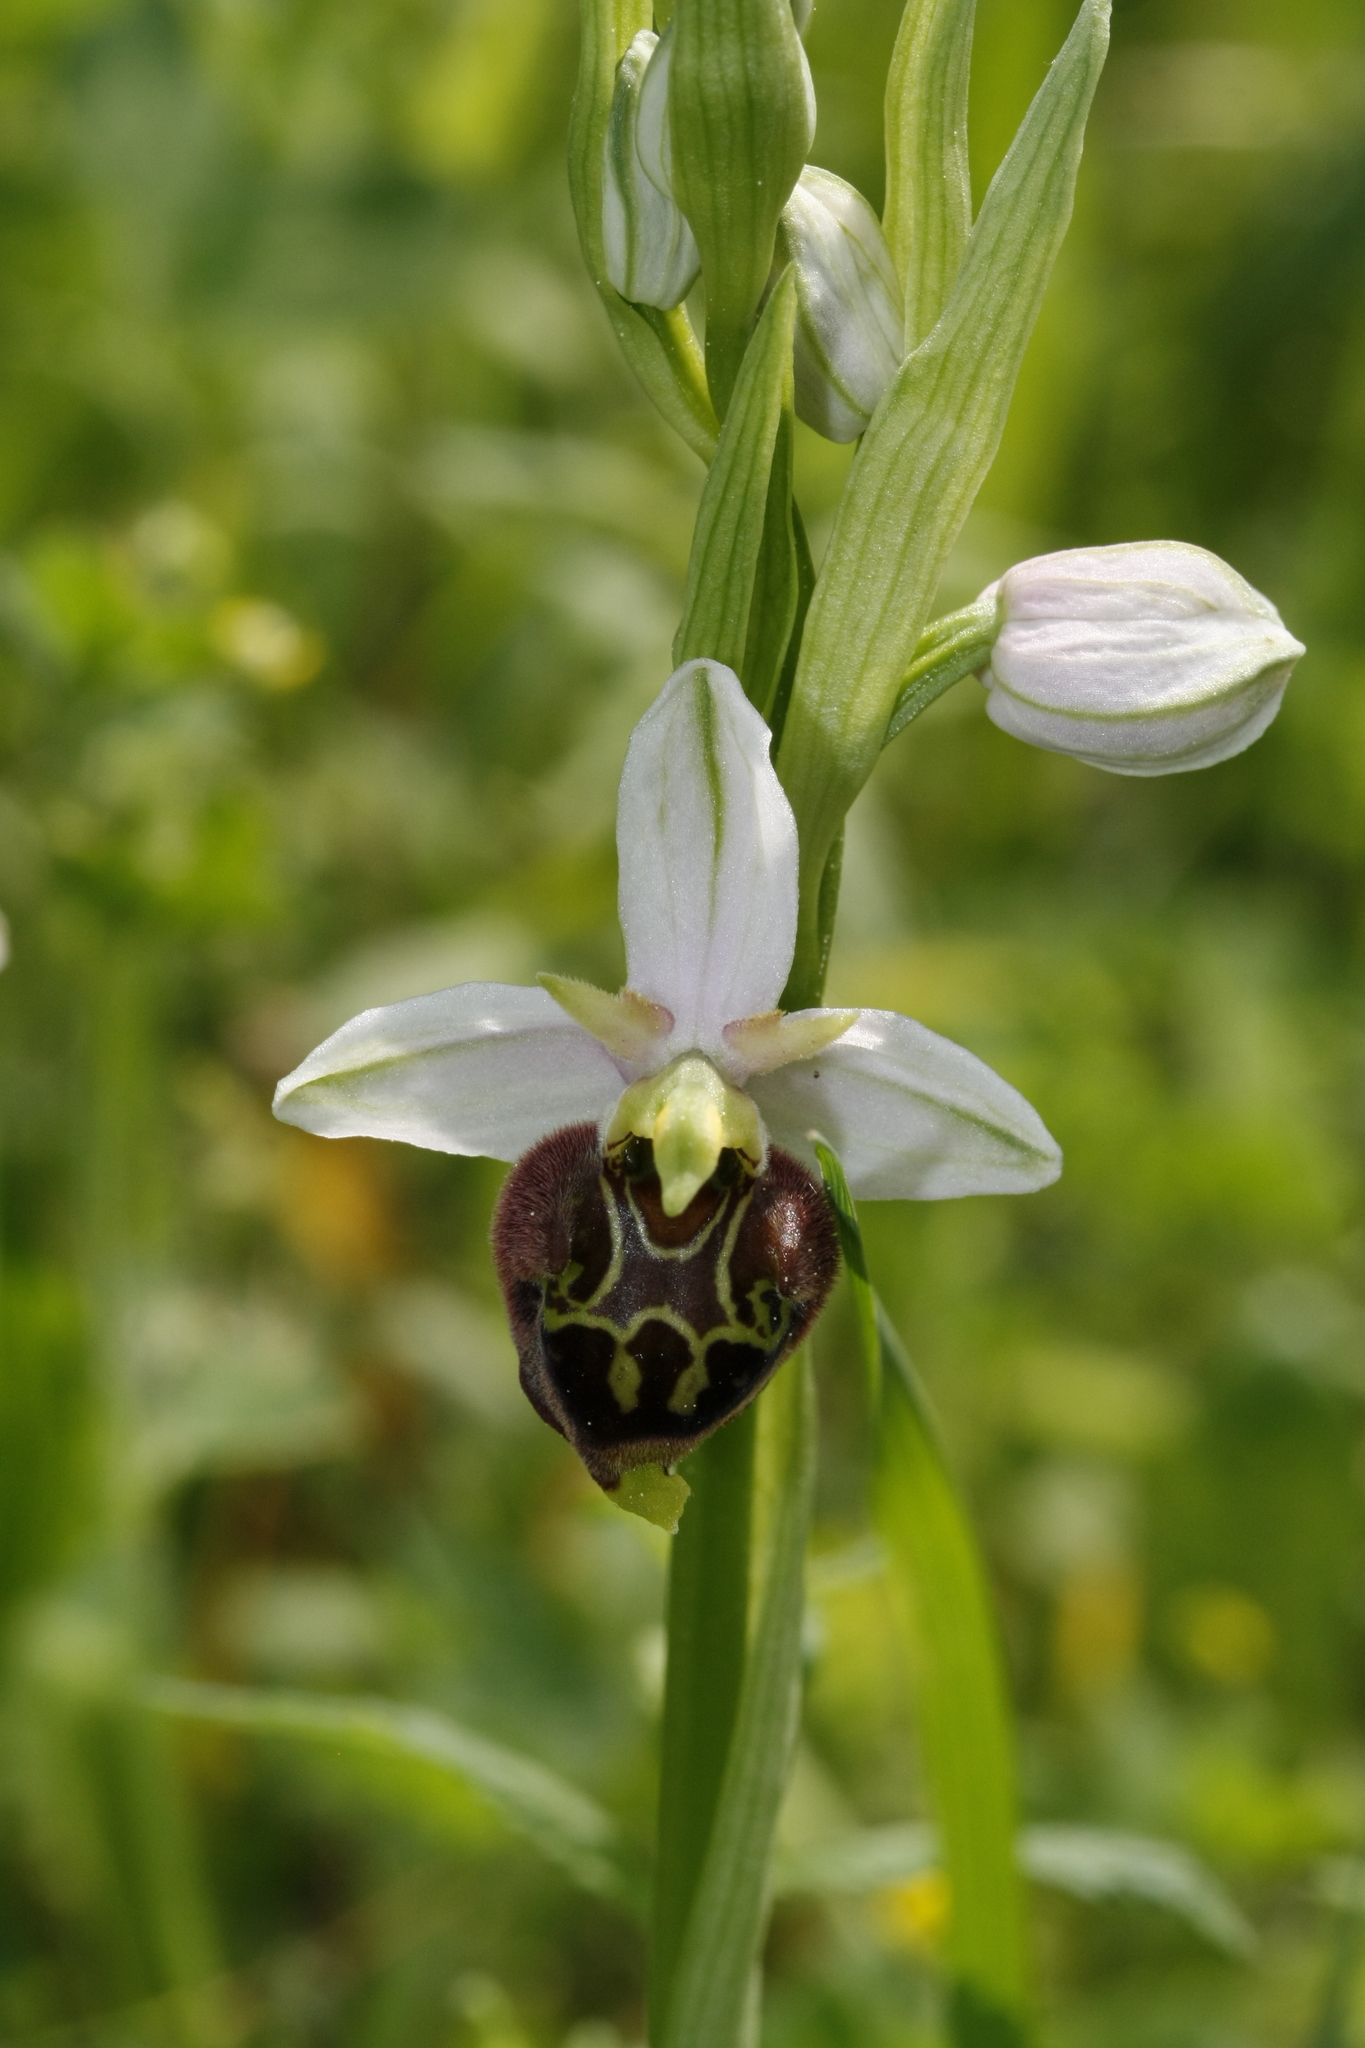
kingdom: Plantae
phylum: Tracheophyta
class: Liliopsida
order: Asparagales
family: Orchidaceae
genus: Ophrys
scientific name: Ophrys holosericea
